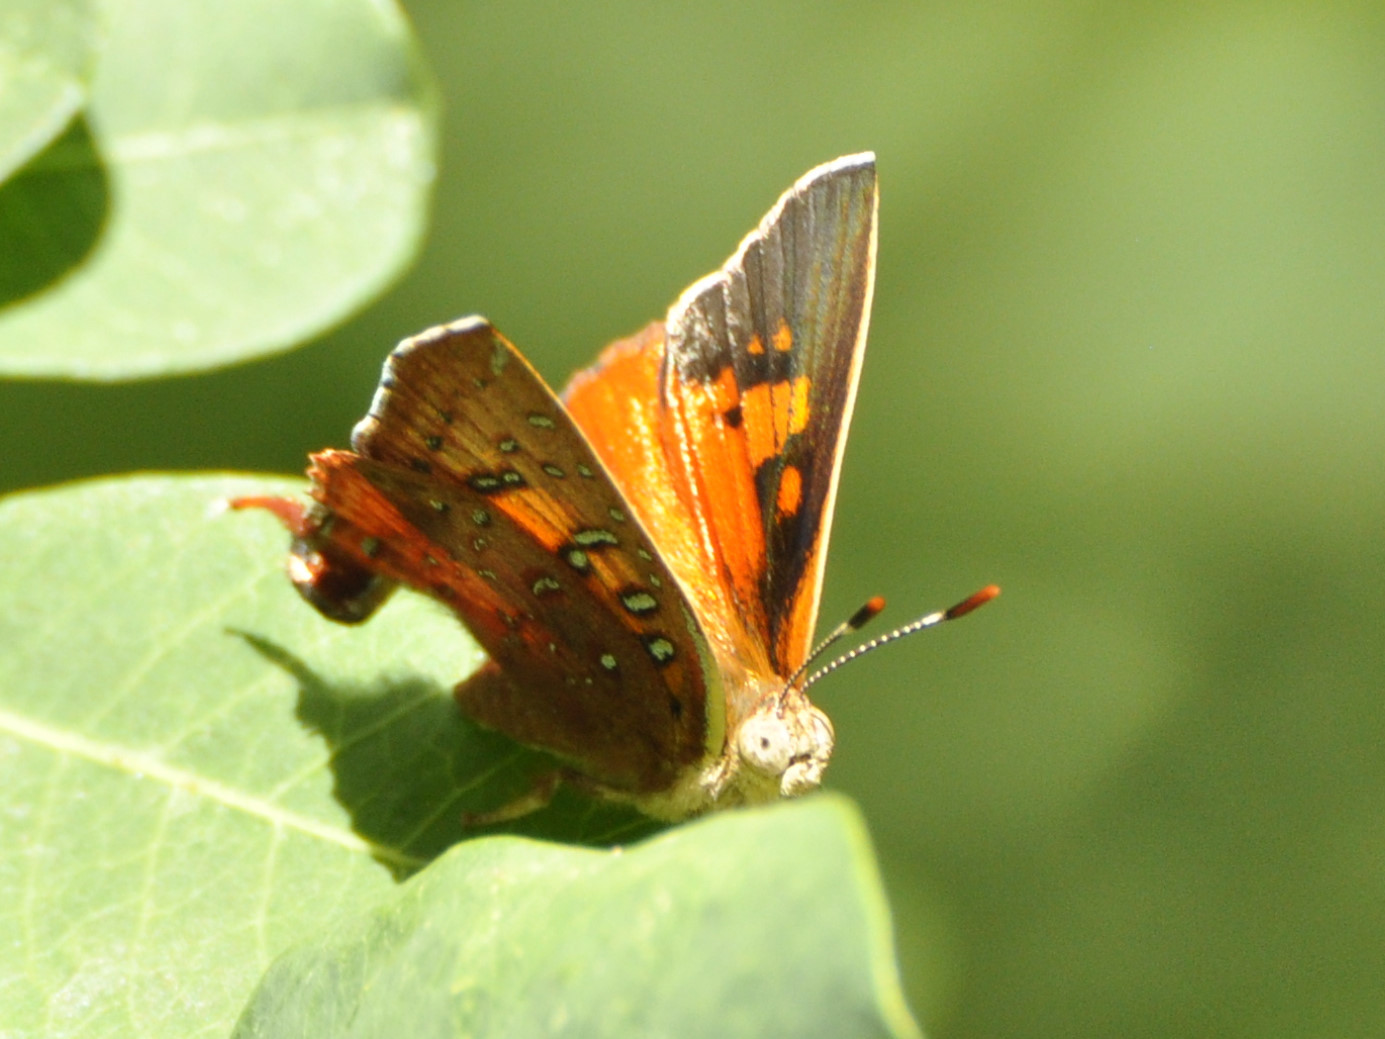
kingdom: Animalia
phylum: Arthropoda
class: Insecta
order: Lepidoptera
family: Lycaenidae
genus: Axiocerses
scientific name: Axiocerses perion
